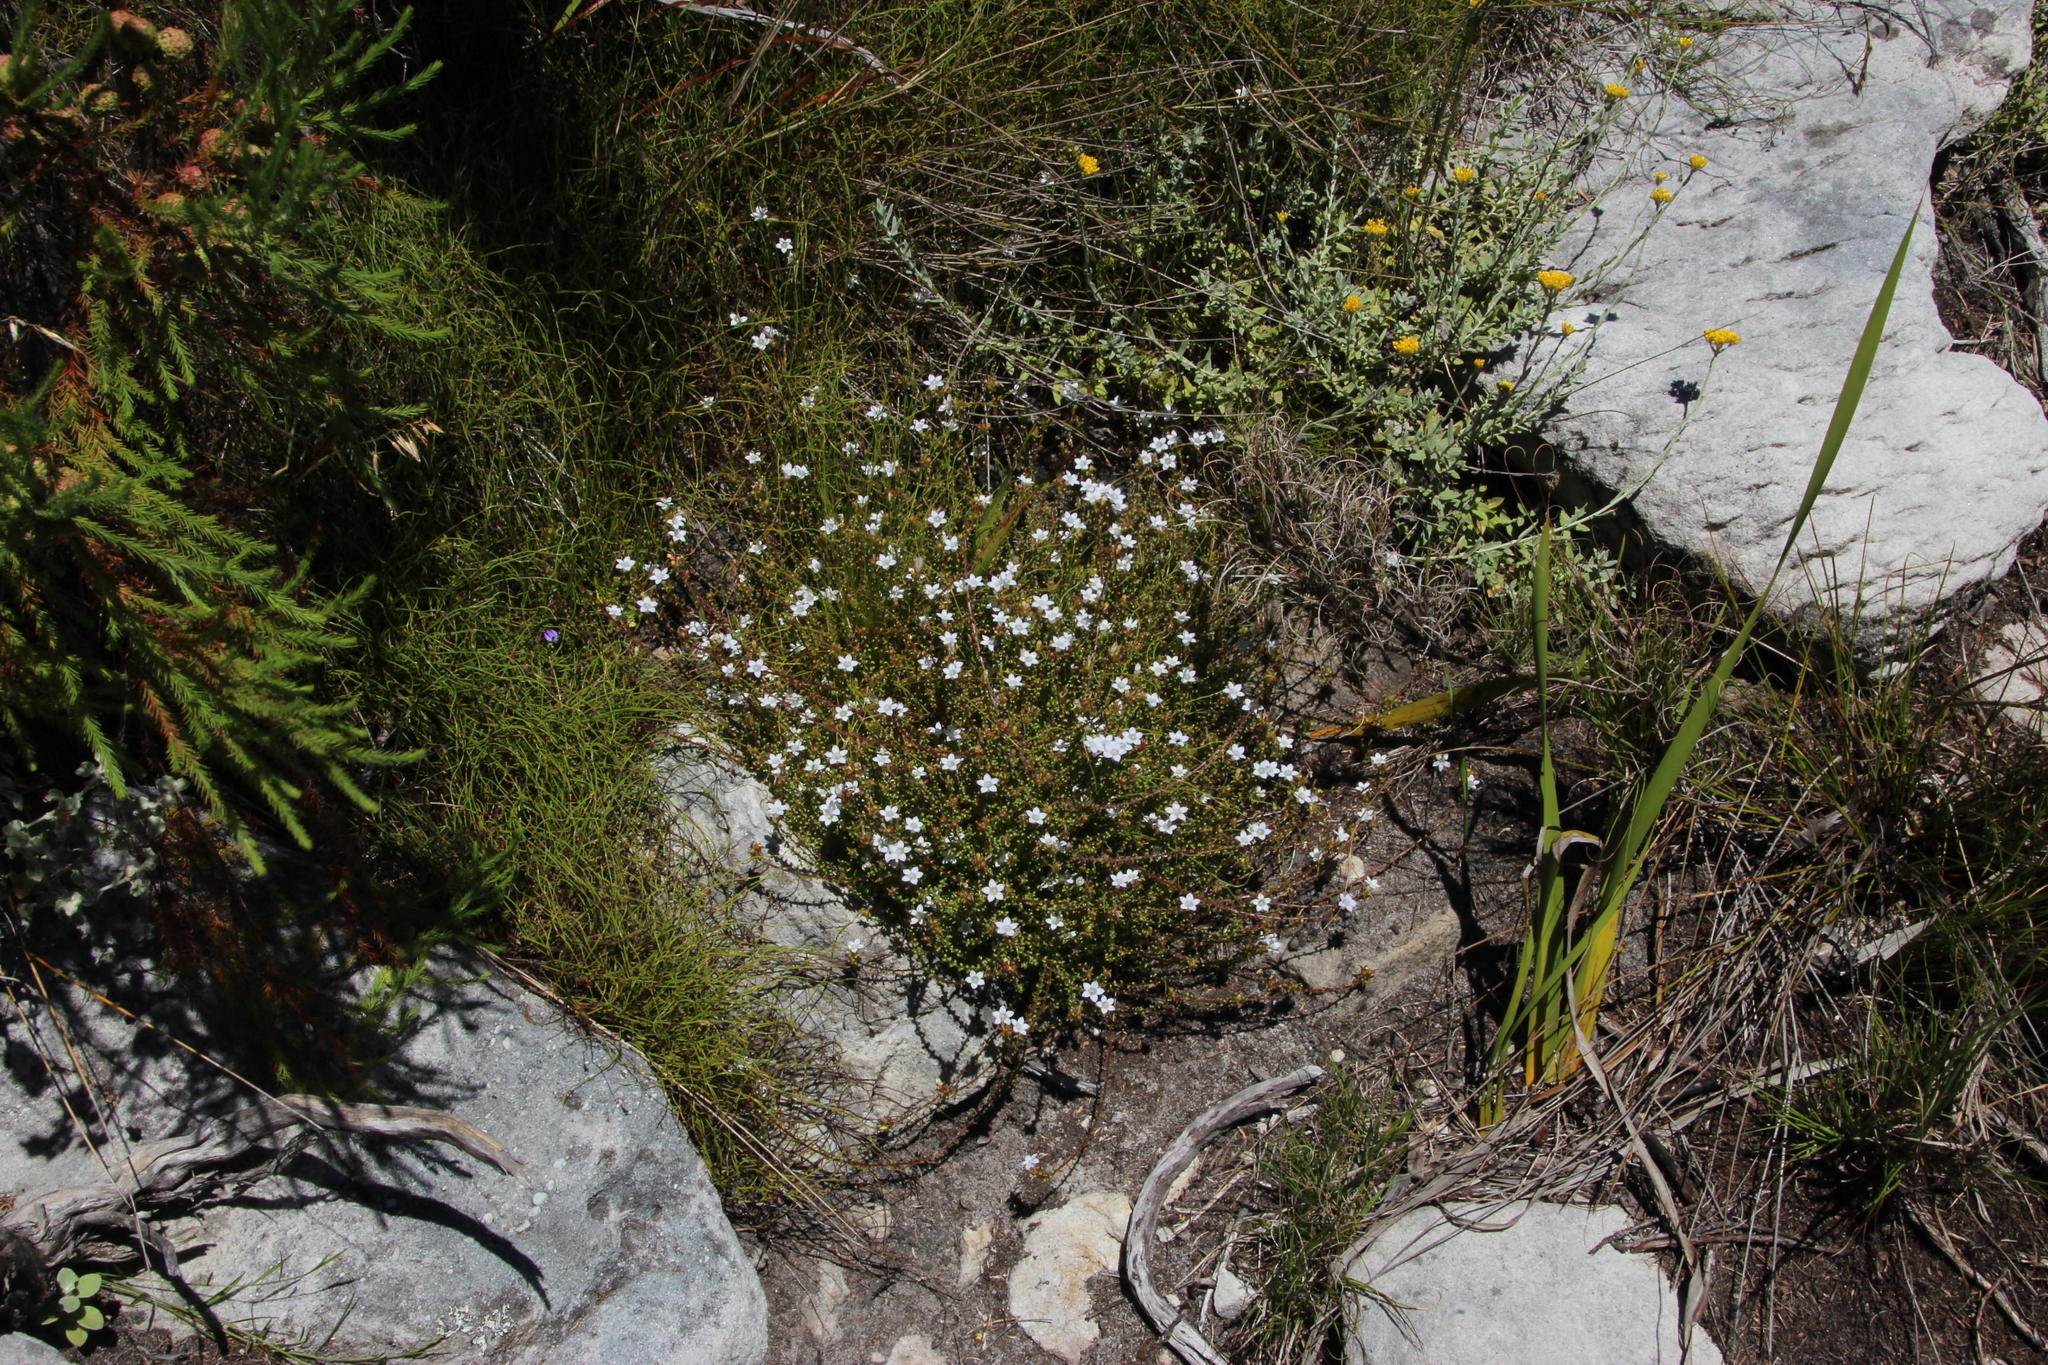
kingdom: Plantae
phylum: Tracheophyta
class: Magnoliopsida
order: Asterales
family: Campanulaceae
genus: Roella
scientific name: Roella squarrosa
